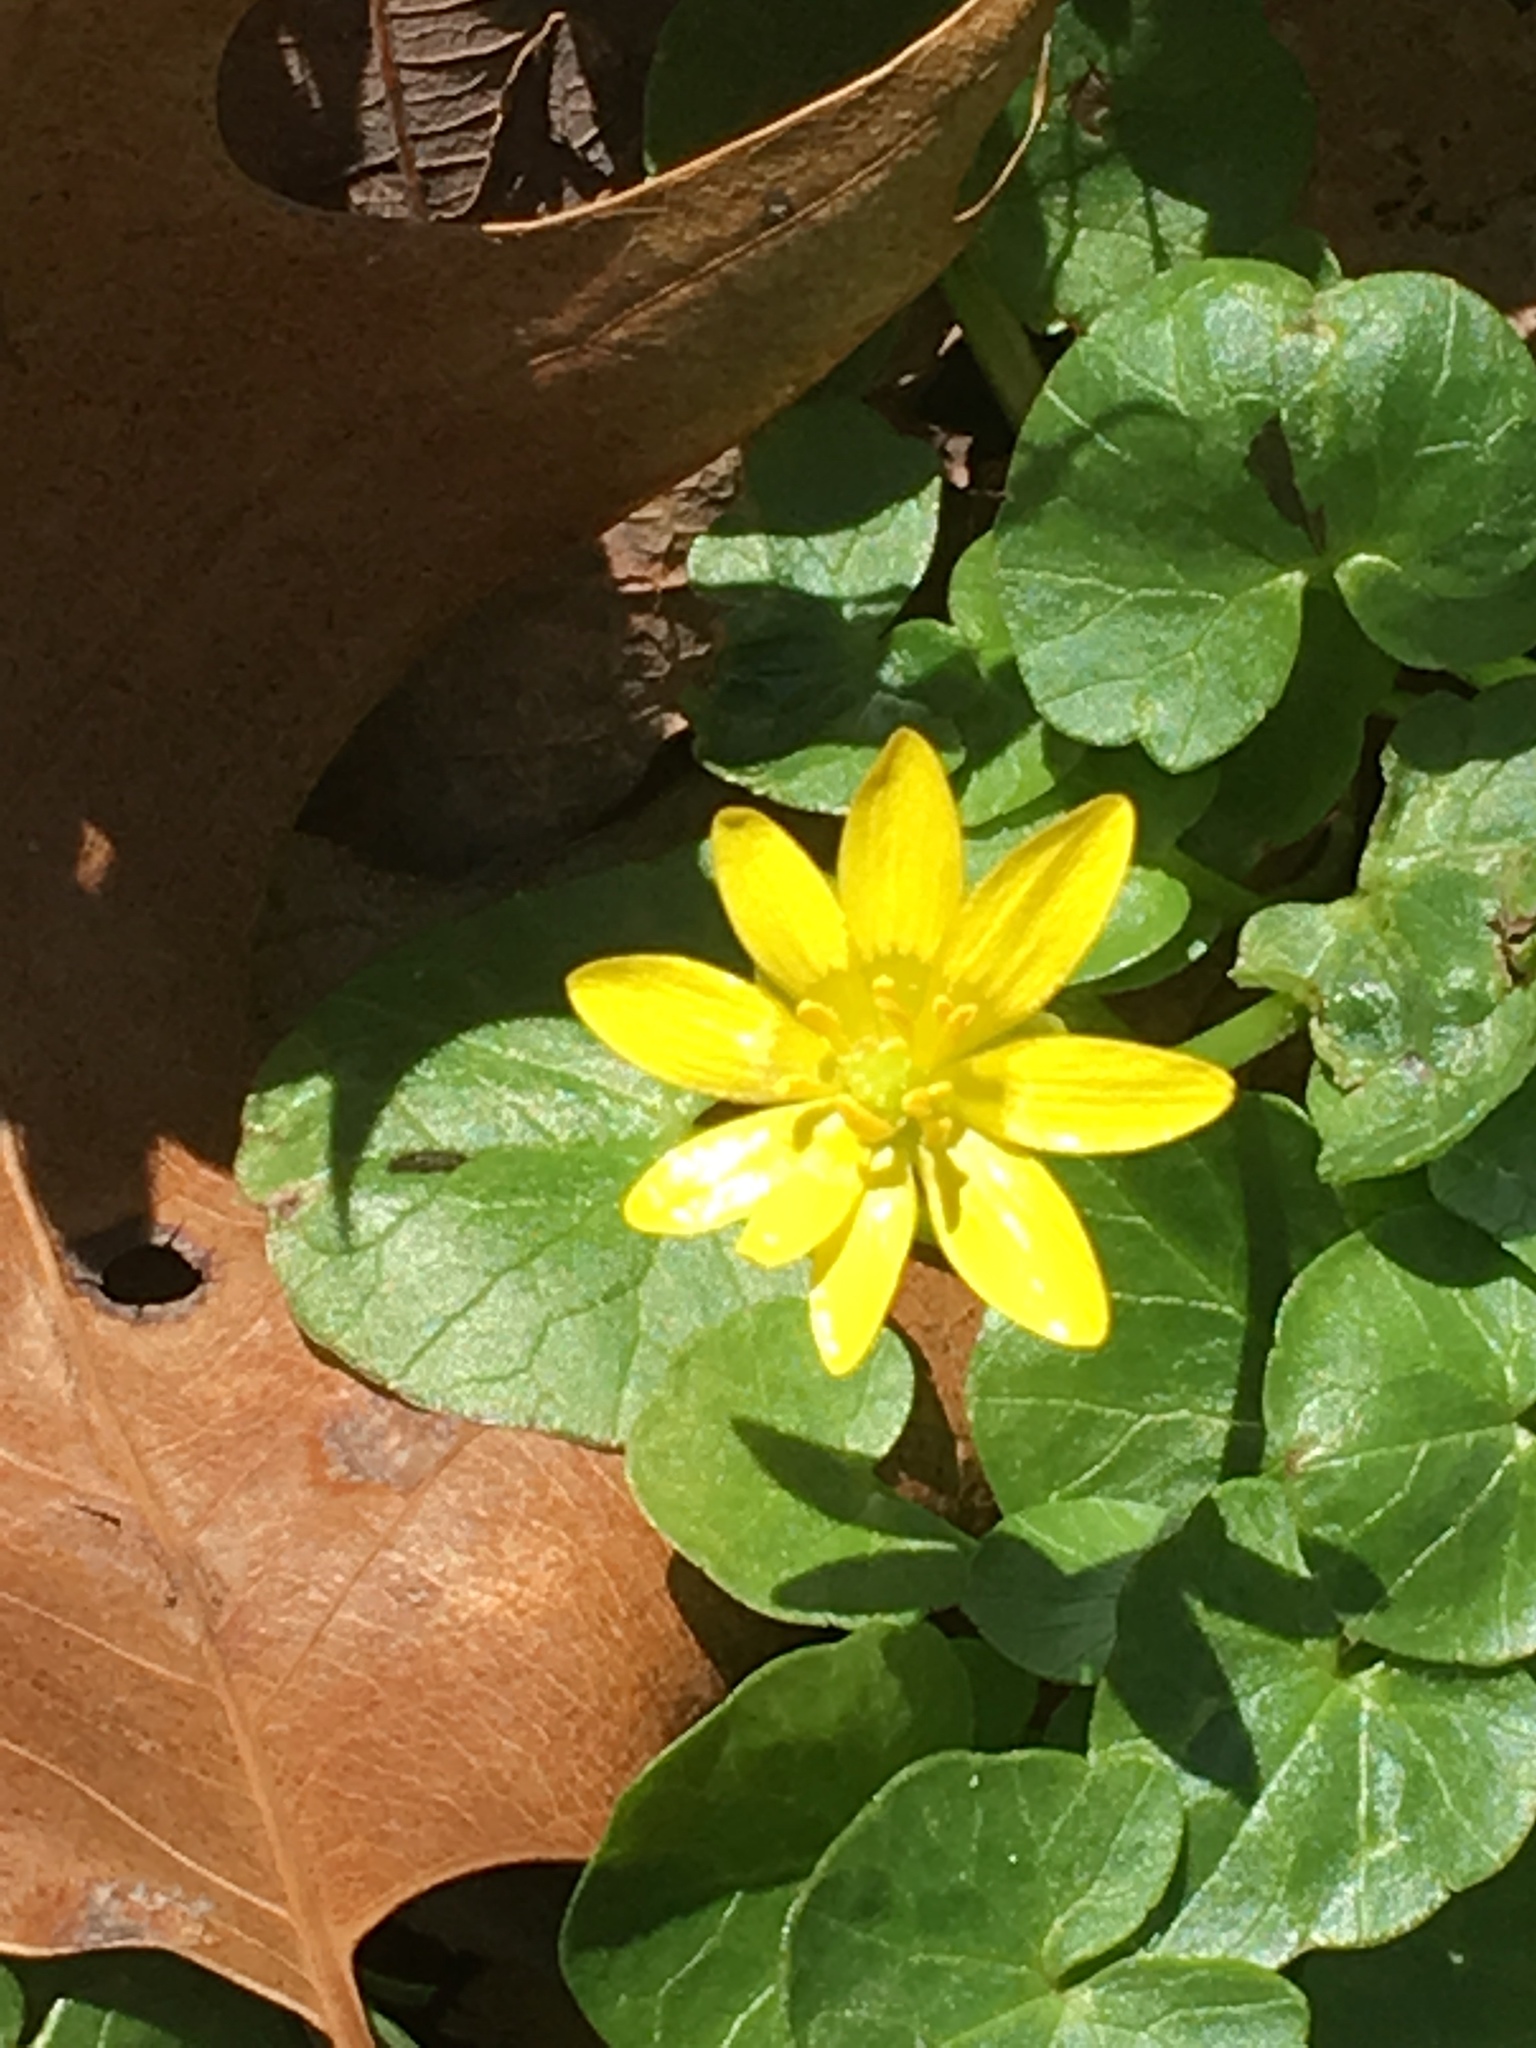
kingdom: Plantae
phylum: Tracheophyta
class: Magnoliopsida
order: Ranunculales
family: Ranunculaceae
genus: Ficaria
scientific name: Ficaria verna
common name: Lesser celandine
